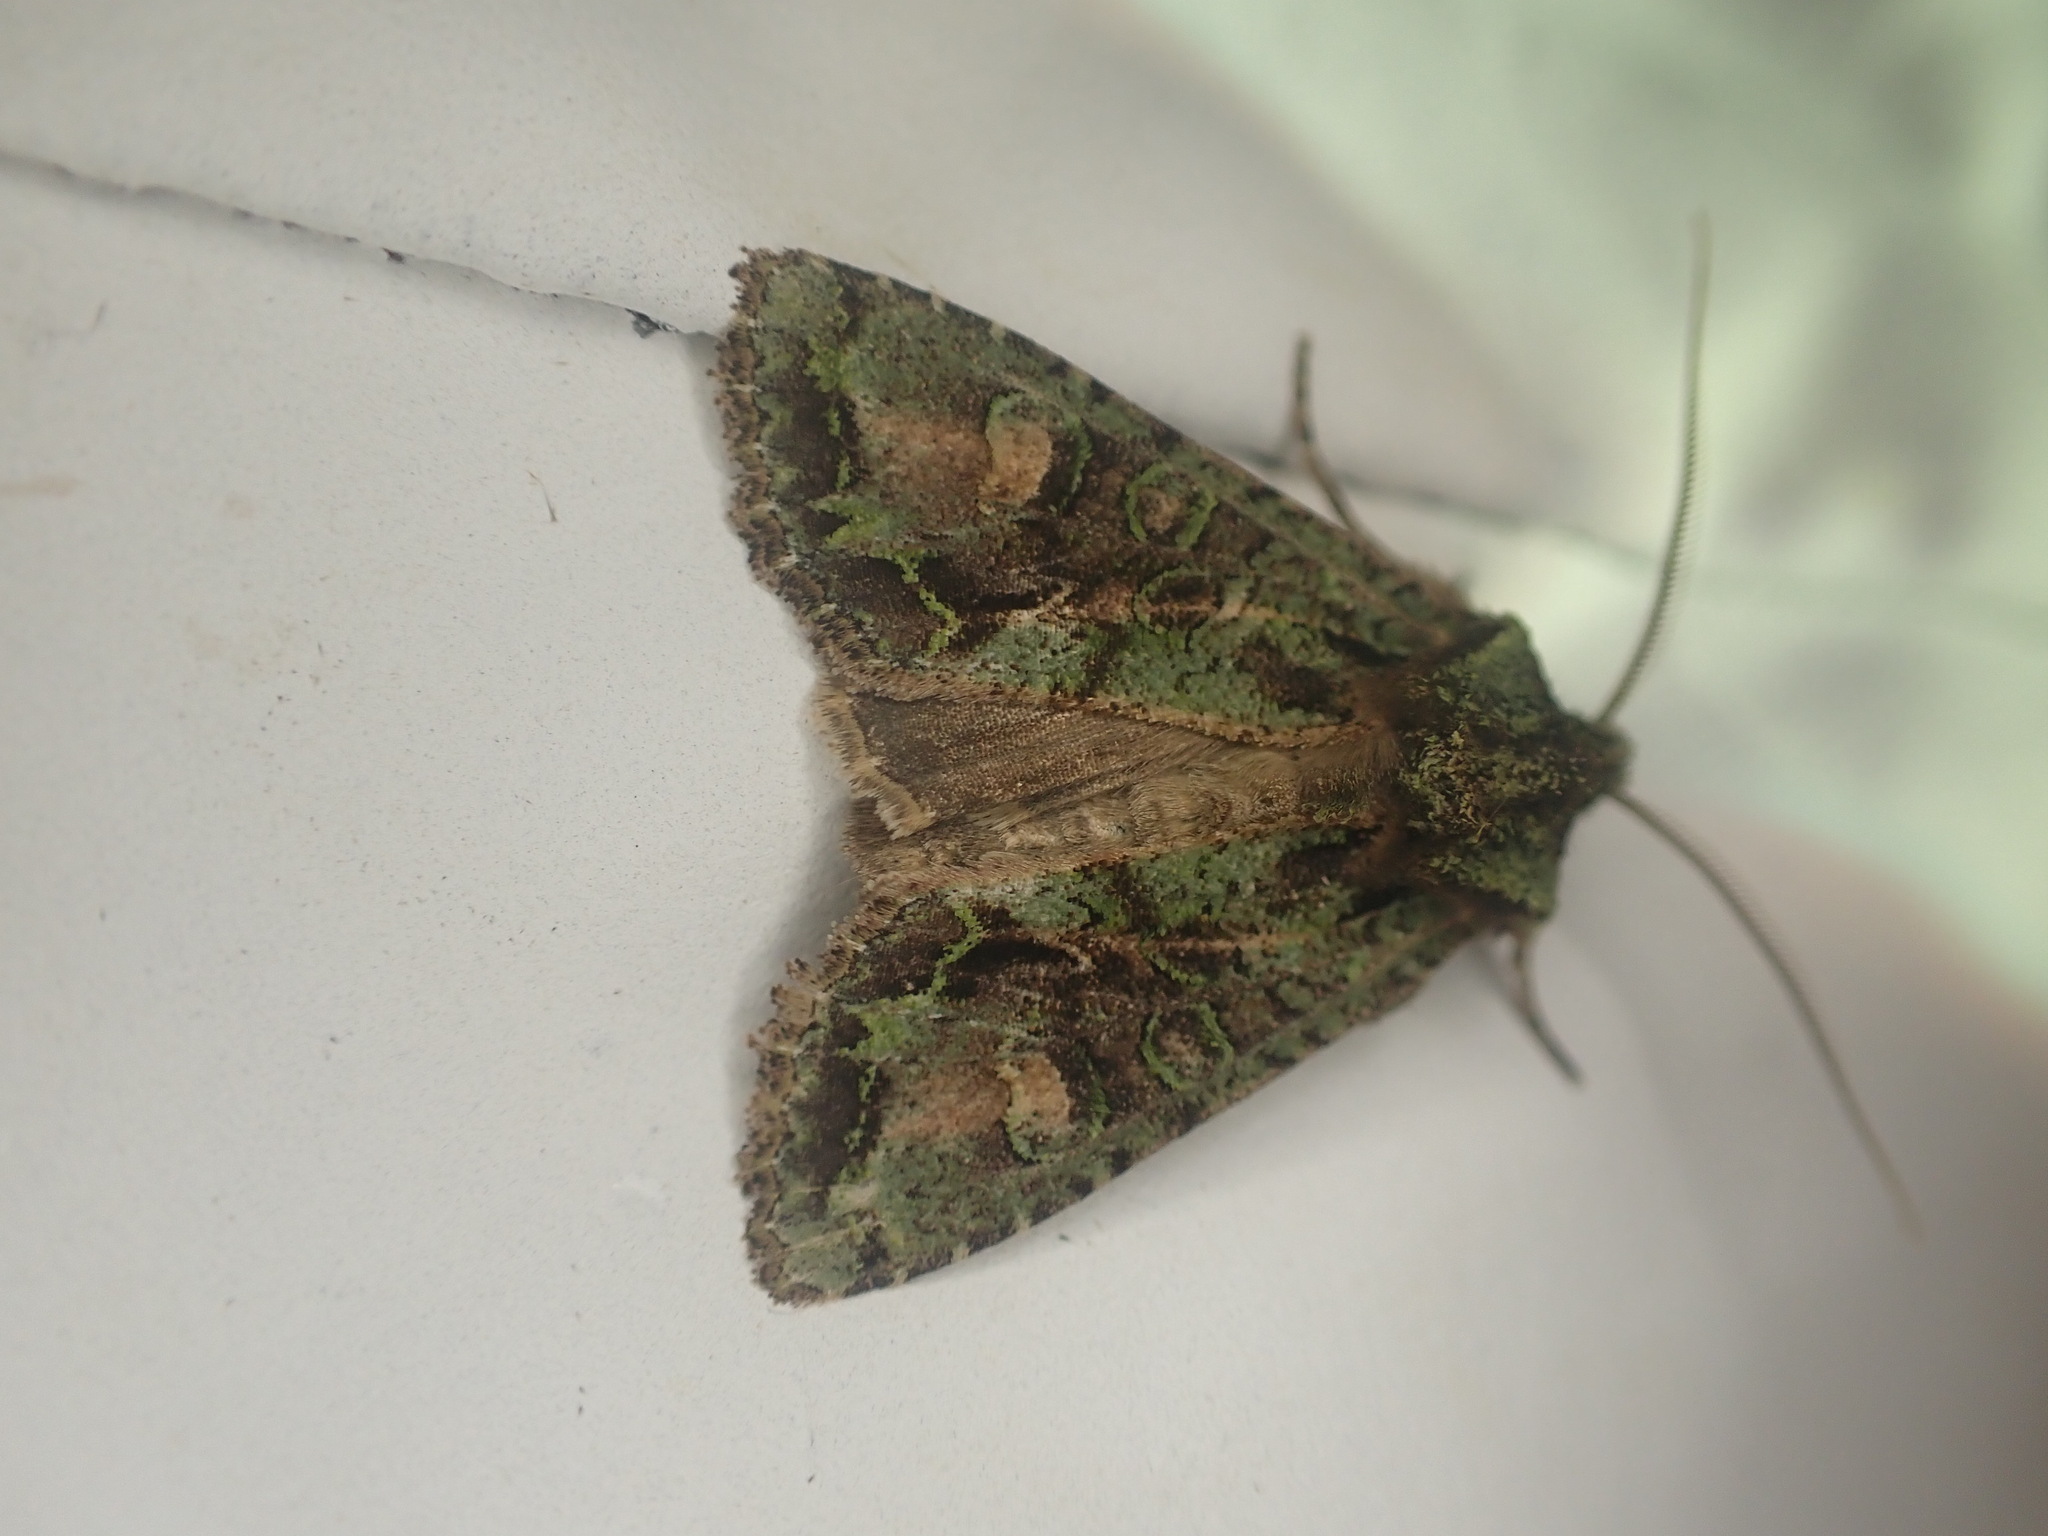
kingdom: Animalia
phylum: Arthropoda
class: Insecta
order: Lepidoptera
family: Noctuidae
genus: Ichneutica
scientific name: Ichneutica
